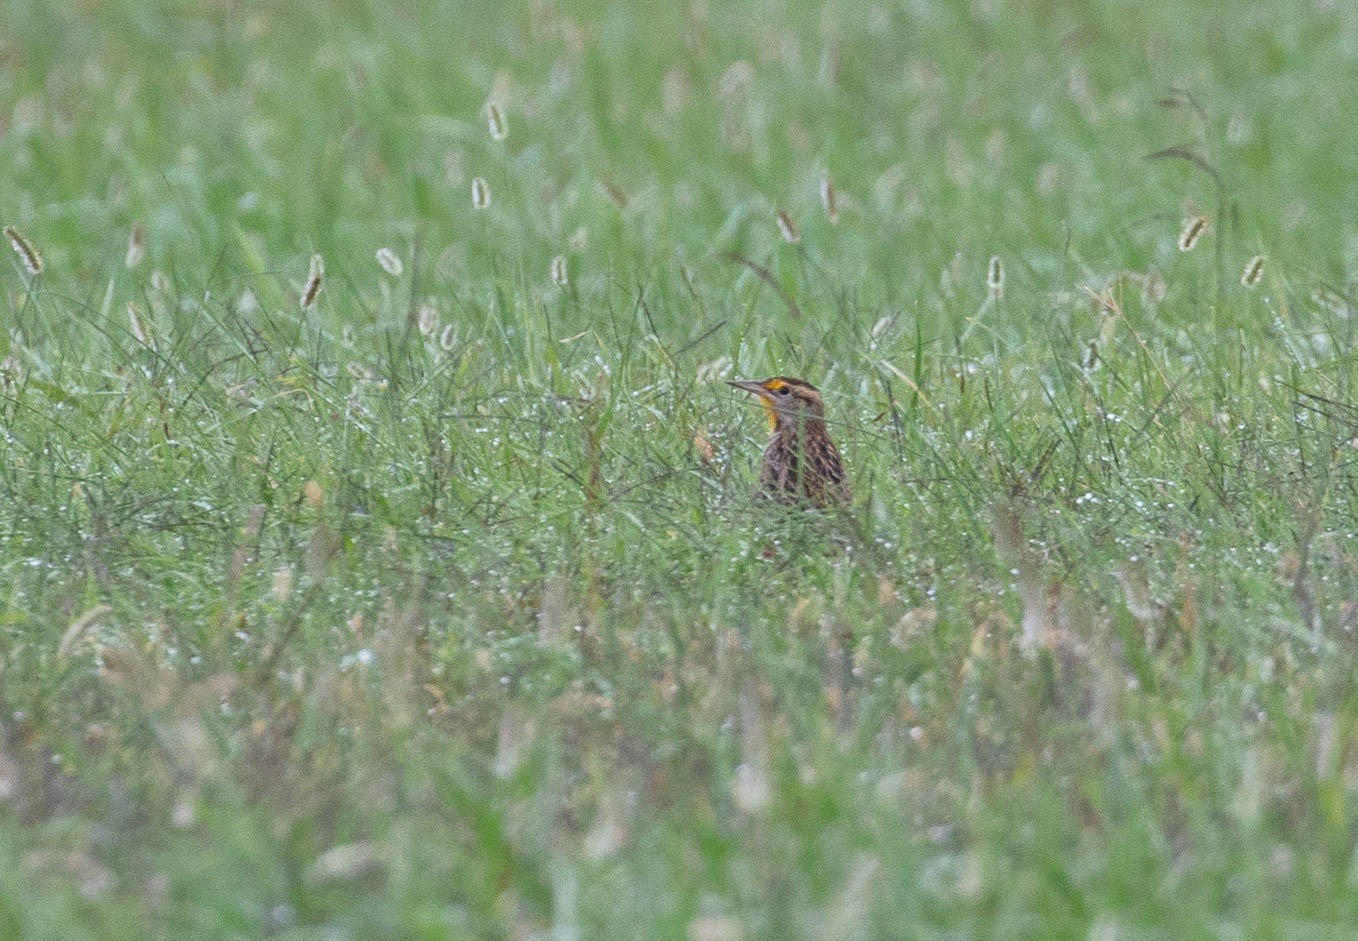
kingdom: Animalia
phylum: Chordata
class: Aves
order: Passeriformes
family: Icteridae
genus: Sturnella
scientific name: Sturnella magna
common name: Eastern meadowlark
